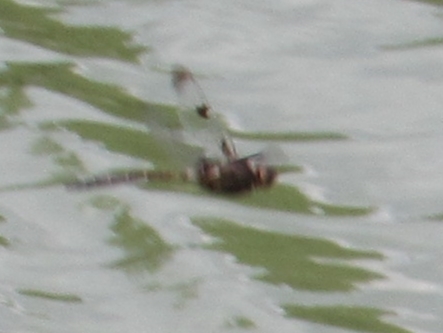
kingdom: Animalia
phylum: Arthropoda
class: Insecta
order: Odonata
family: Corduliidae
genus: Epitheca
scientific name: Epitheca princeps
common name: Prince baskettail
